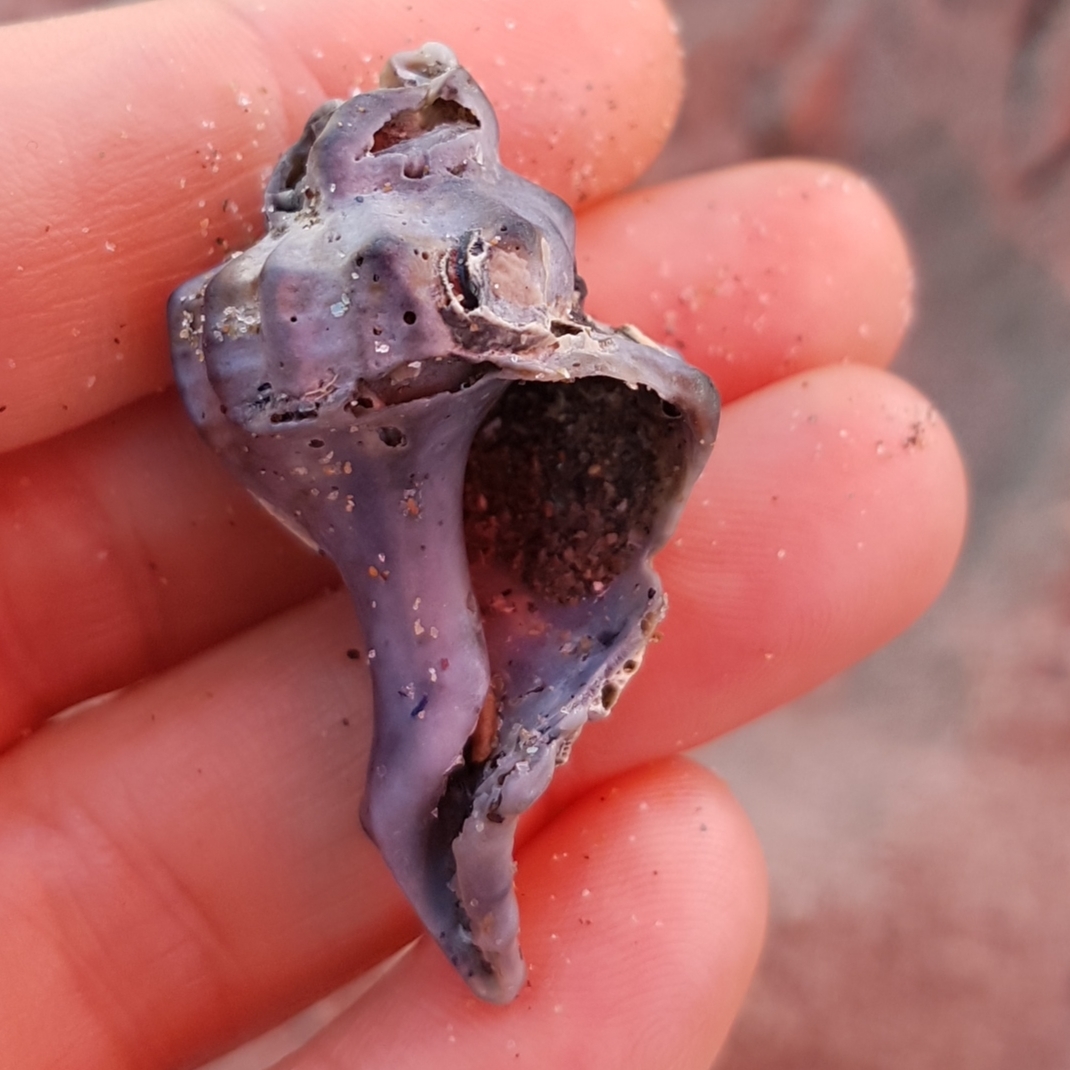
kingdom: Animalia
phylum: Mollusca
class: Gastropoda
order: Neogastropoda
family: Muricidae
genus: Hexaplex
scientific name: Hexaplex trunculus
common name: Banded dye-murex
